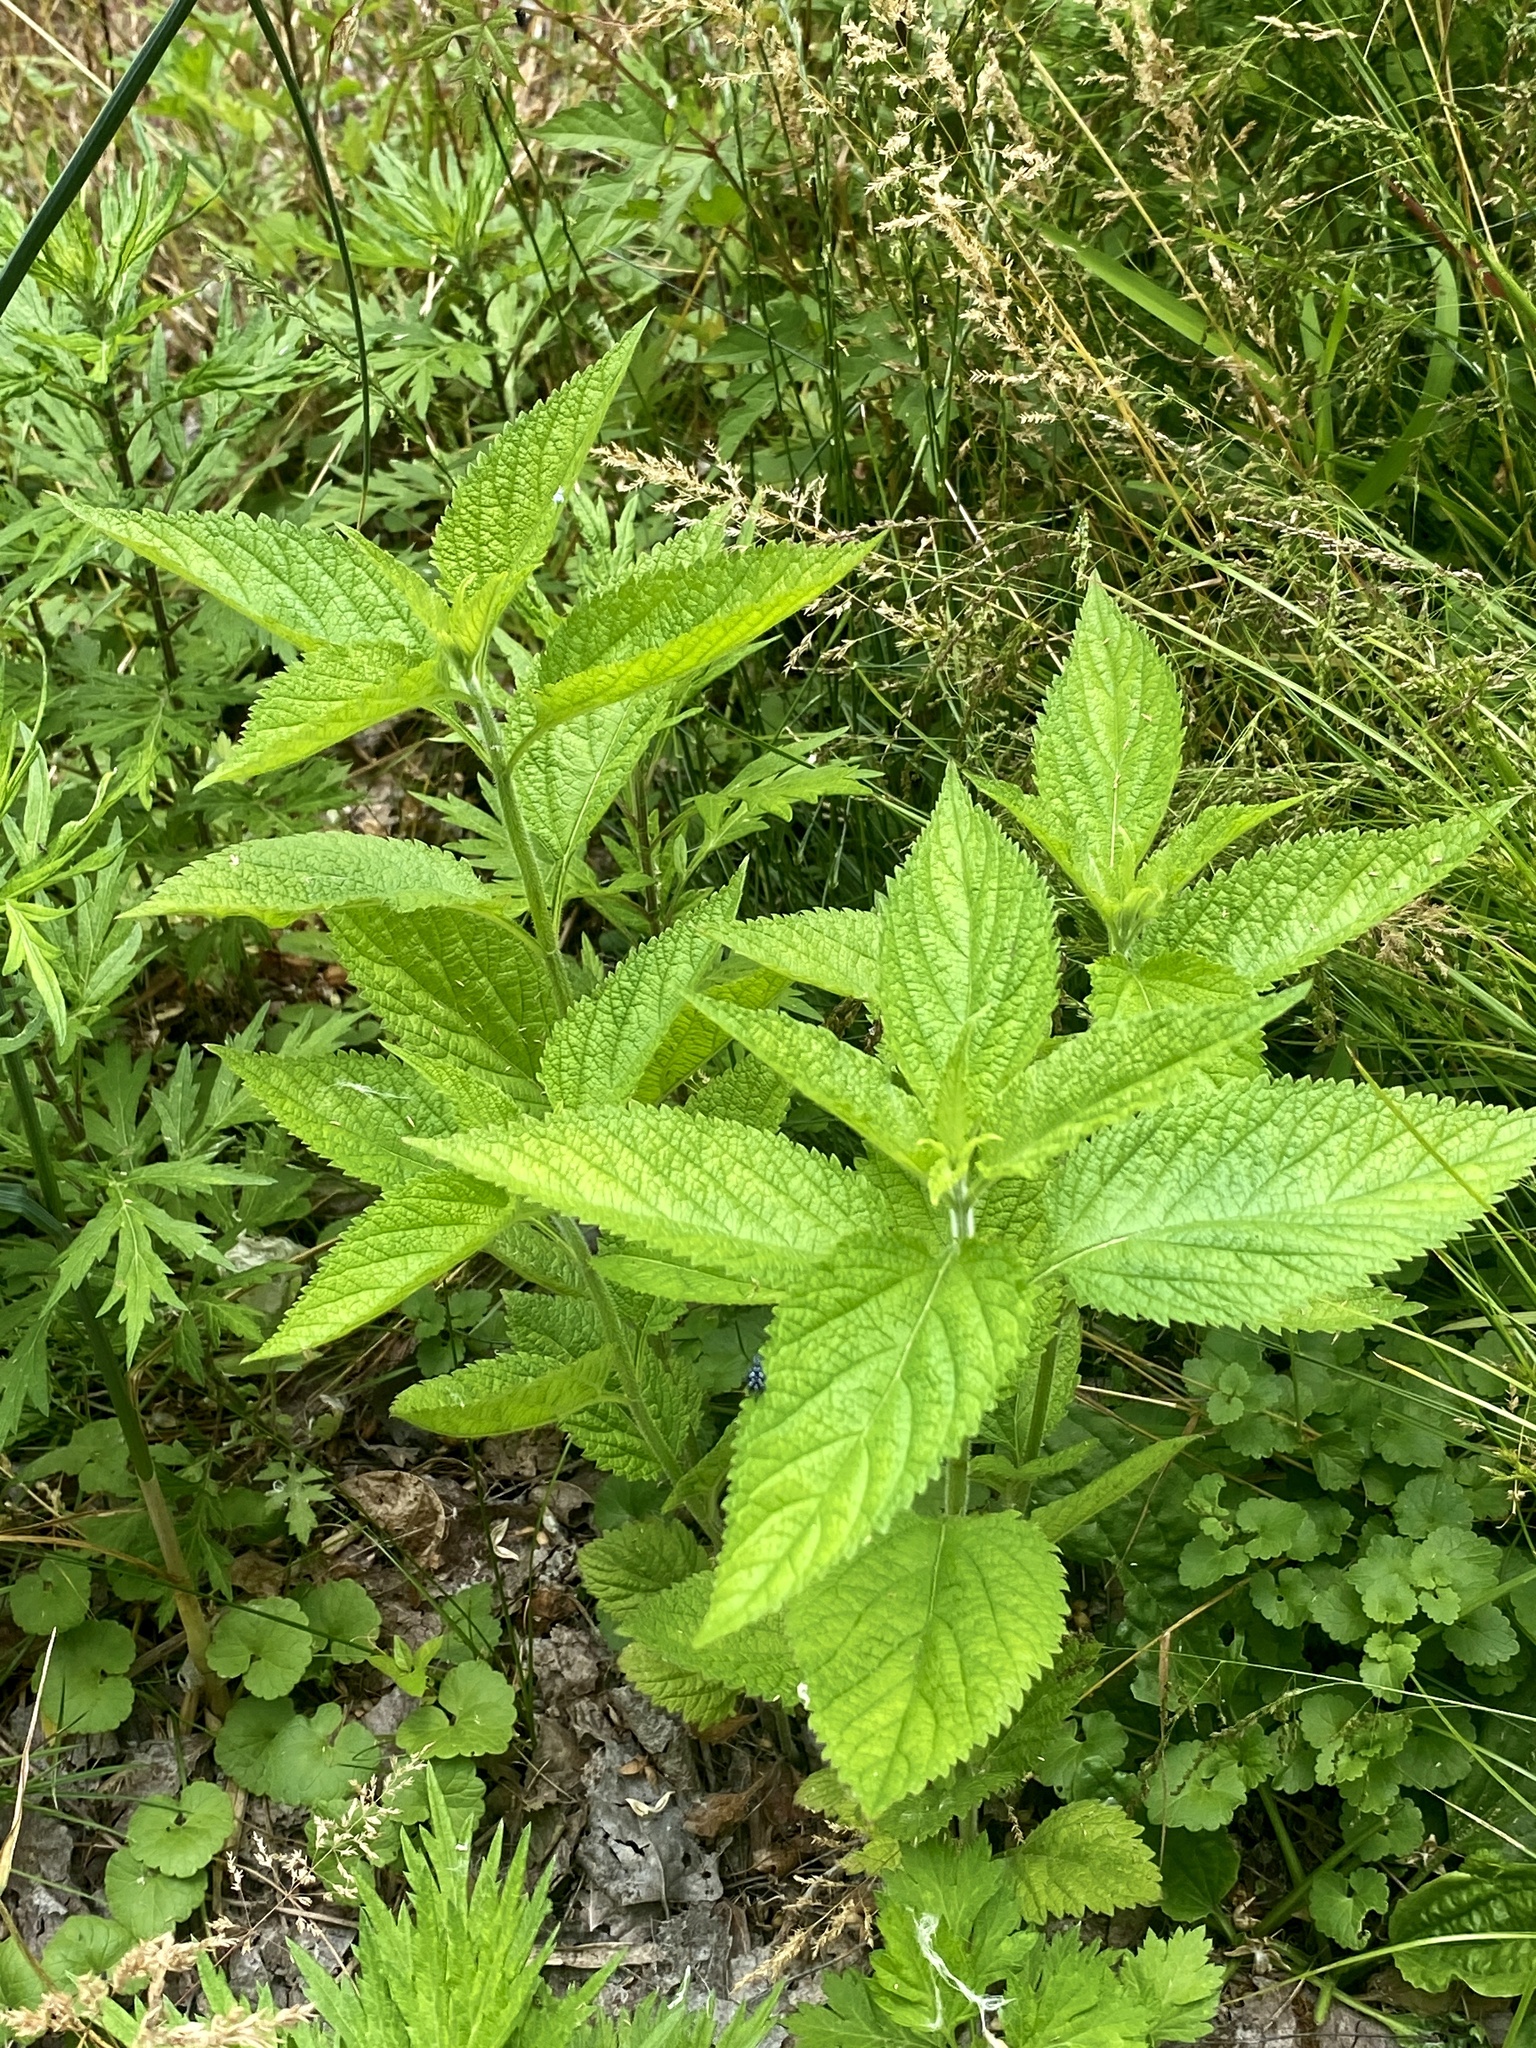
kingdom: Plantae
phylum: Tracheophyta
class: Magnoliopsida
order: Lamiales
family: Verbenaceae
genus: Verbena
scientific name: Verbena urticifolia
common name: Nettle-leaved vervain
